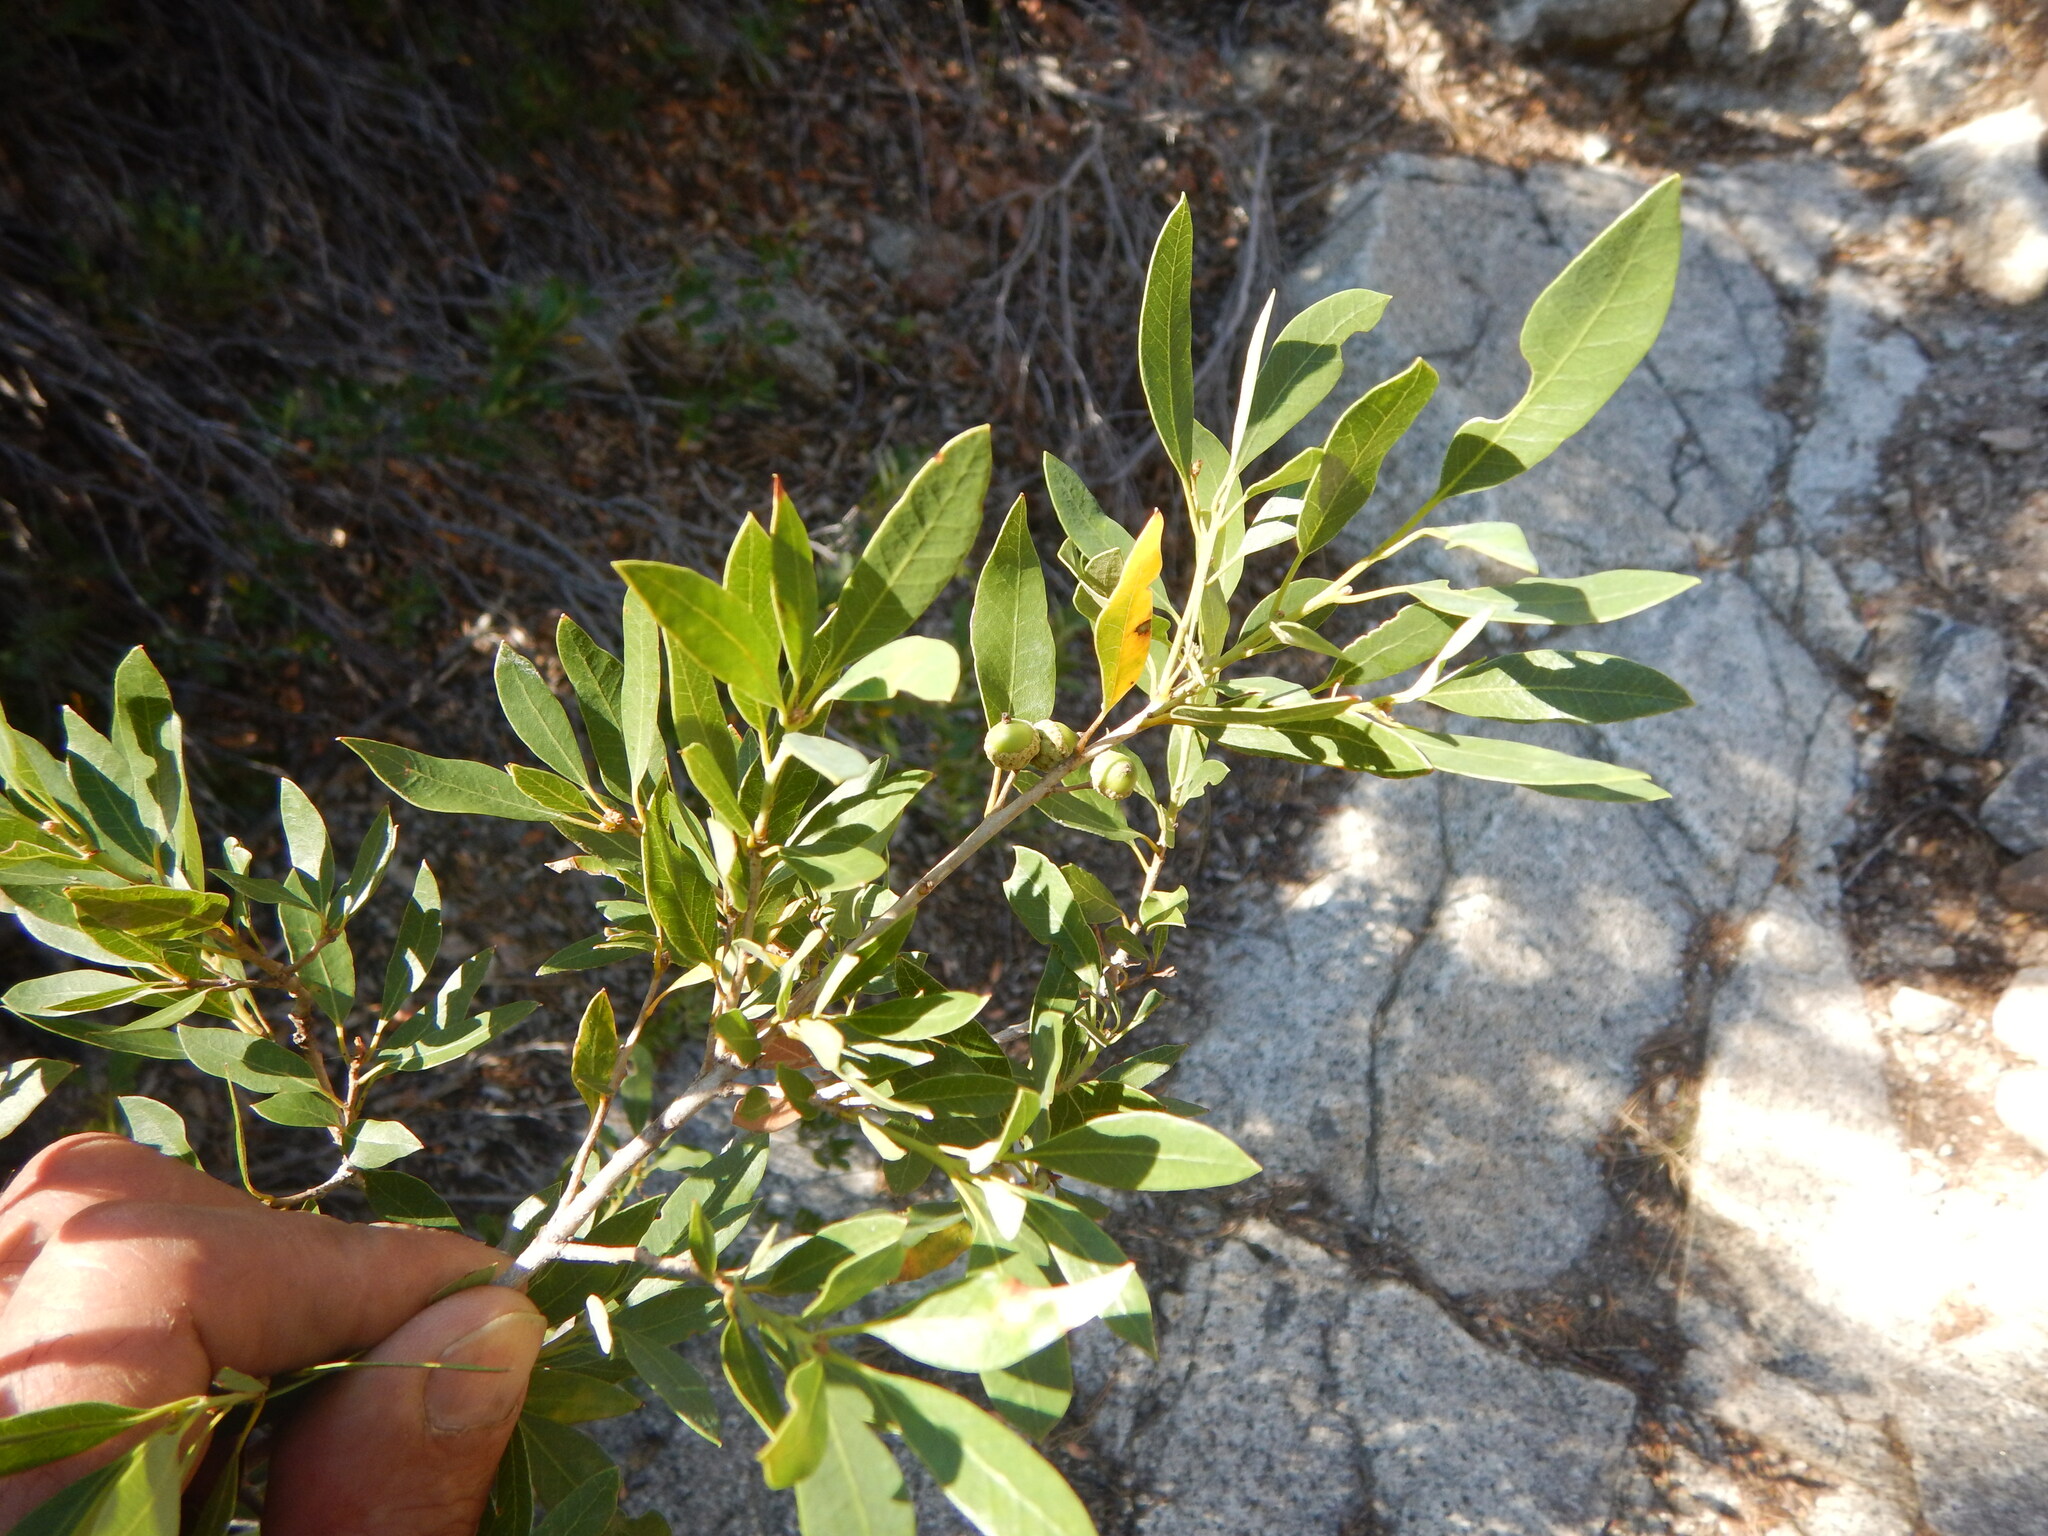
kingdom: Plantae
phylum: Tracheophyta
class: Magnoliopsida
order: Fagales
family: Fagaceae
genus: Quercus
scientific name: Quercus vacciniifolia
